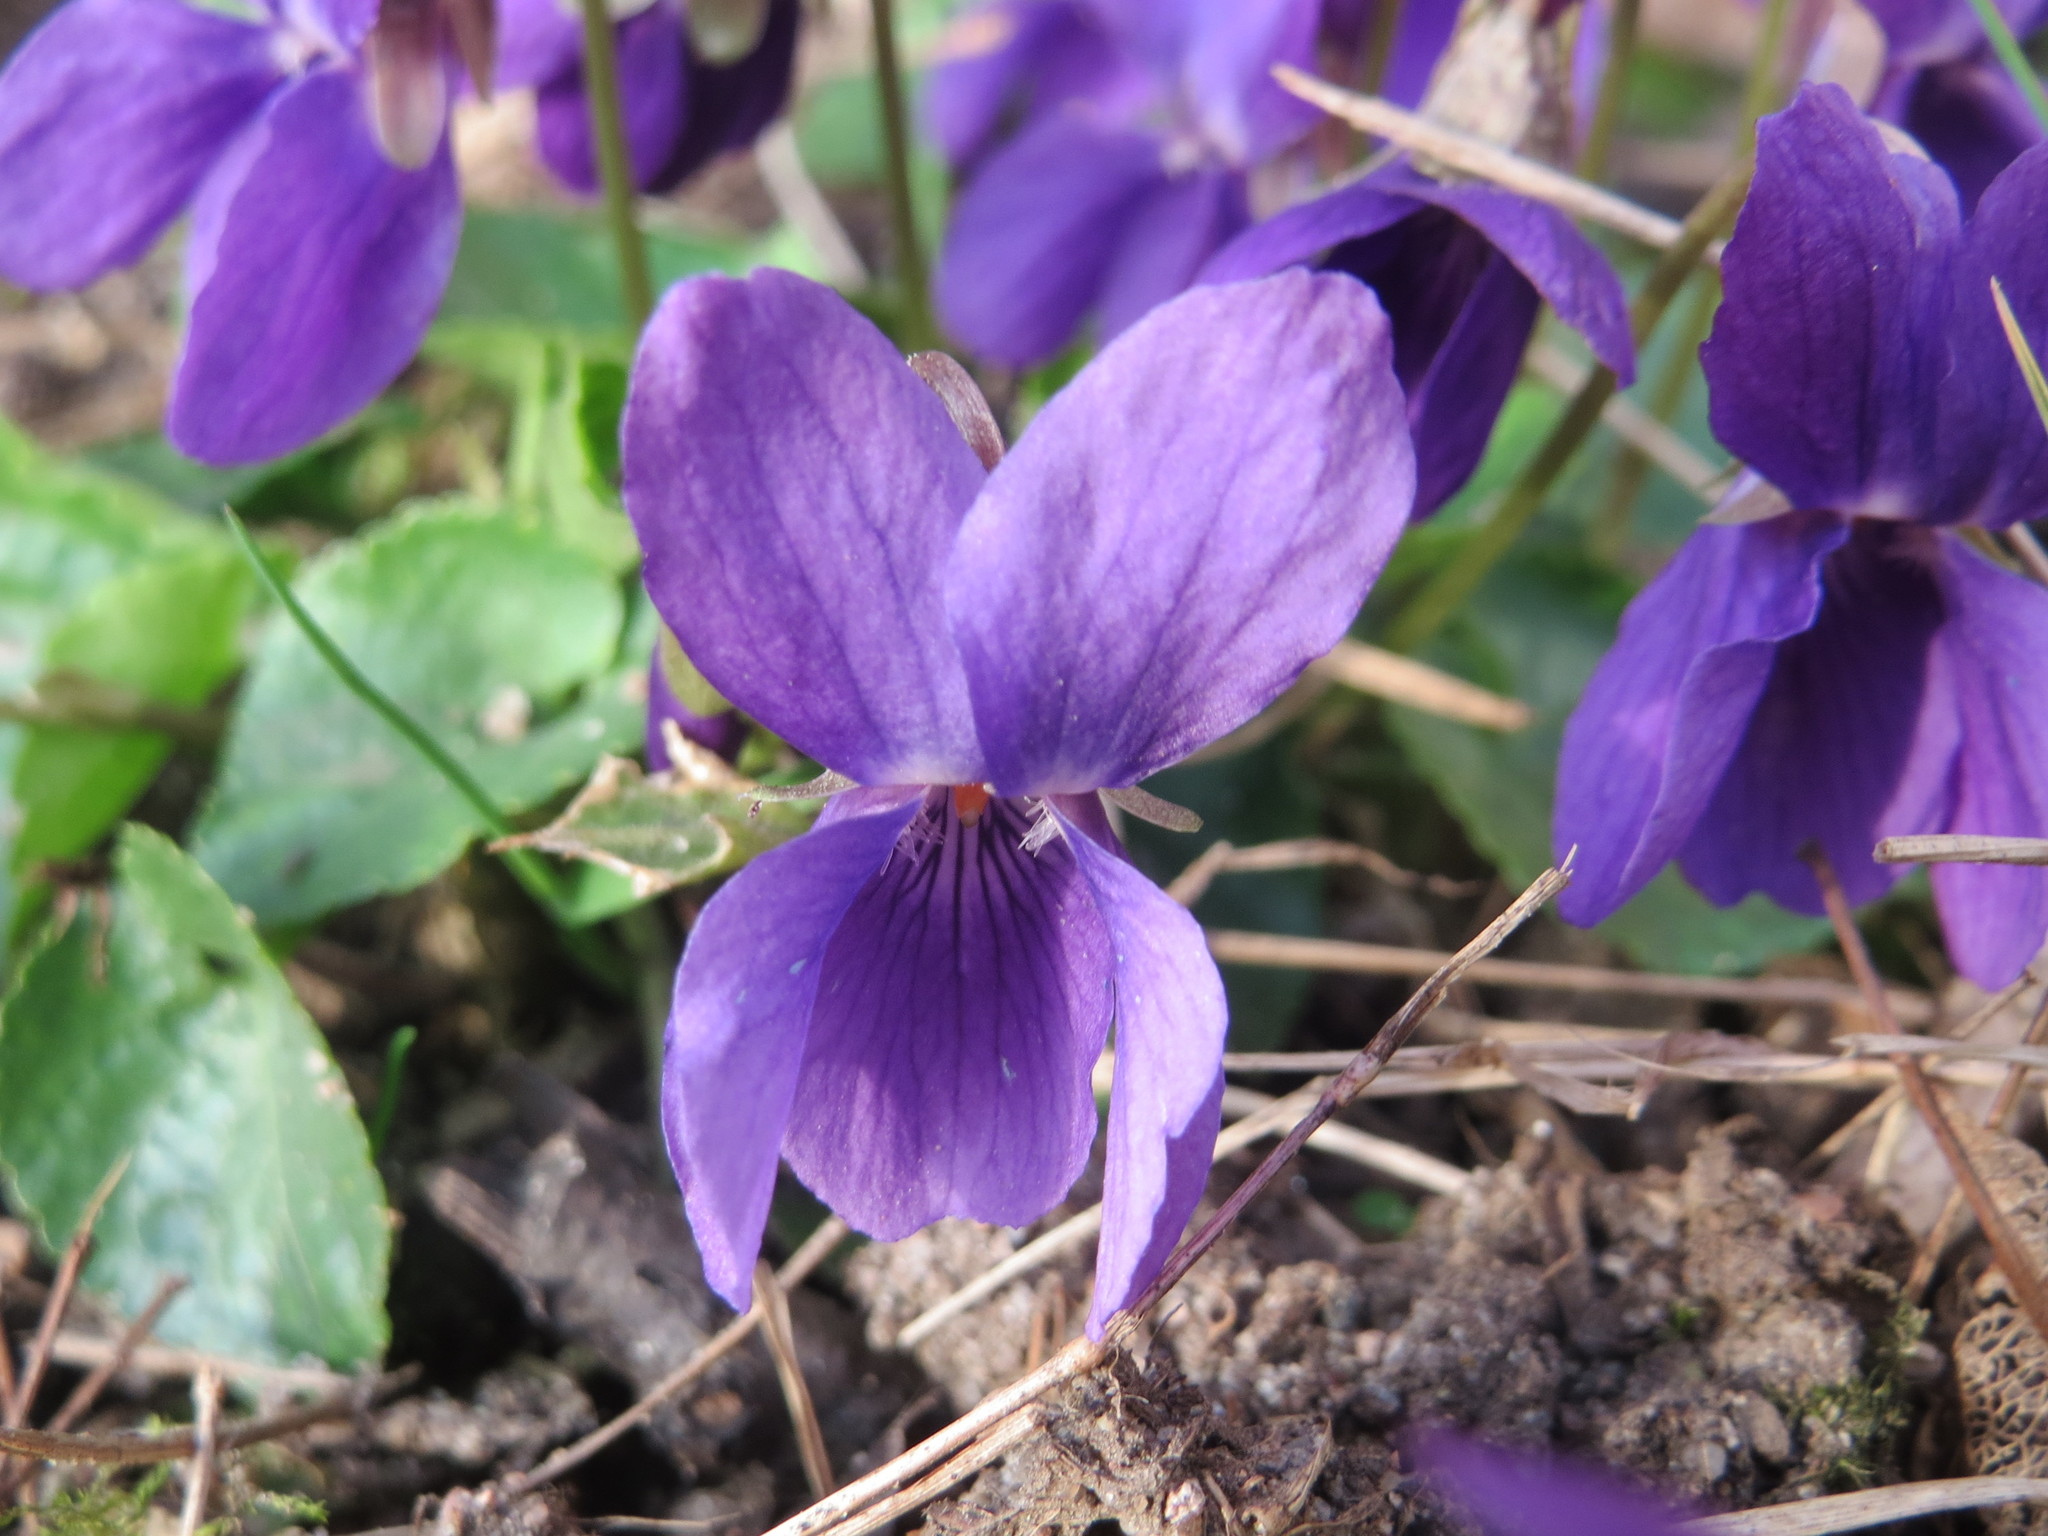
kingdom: Plantae
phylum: Tracheophyta
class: Magnoliopsida
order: Malpighiales
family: Violaceae
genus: Viola
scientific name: Viola odorata
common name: Sweet violet
